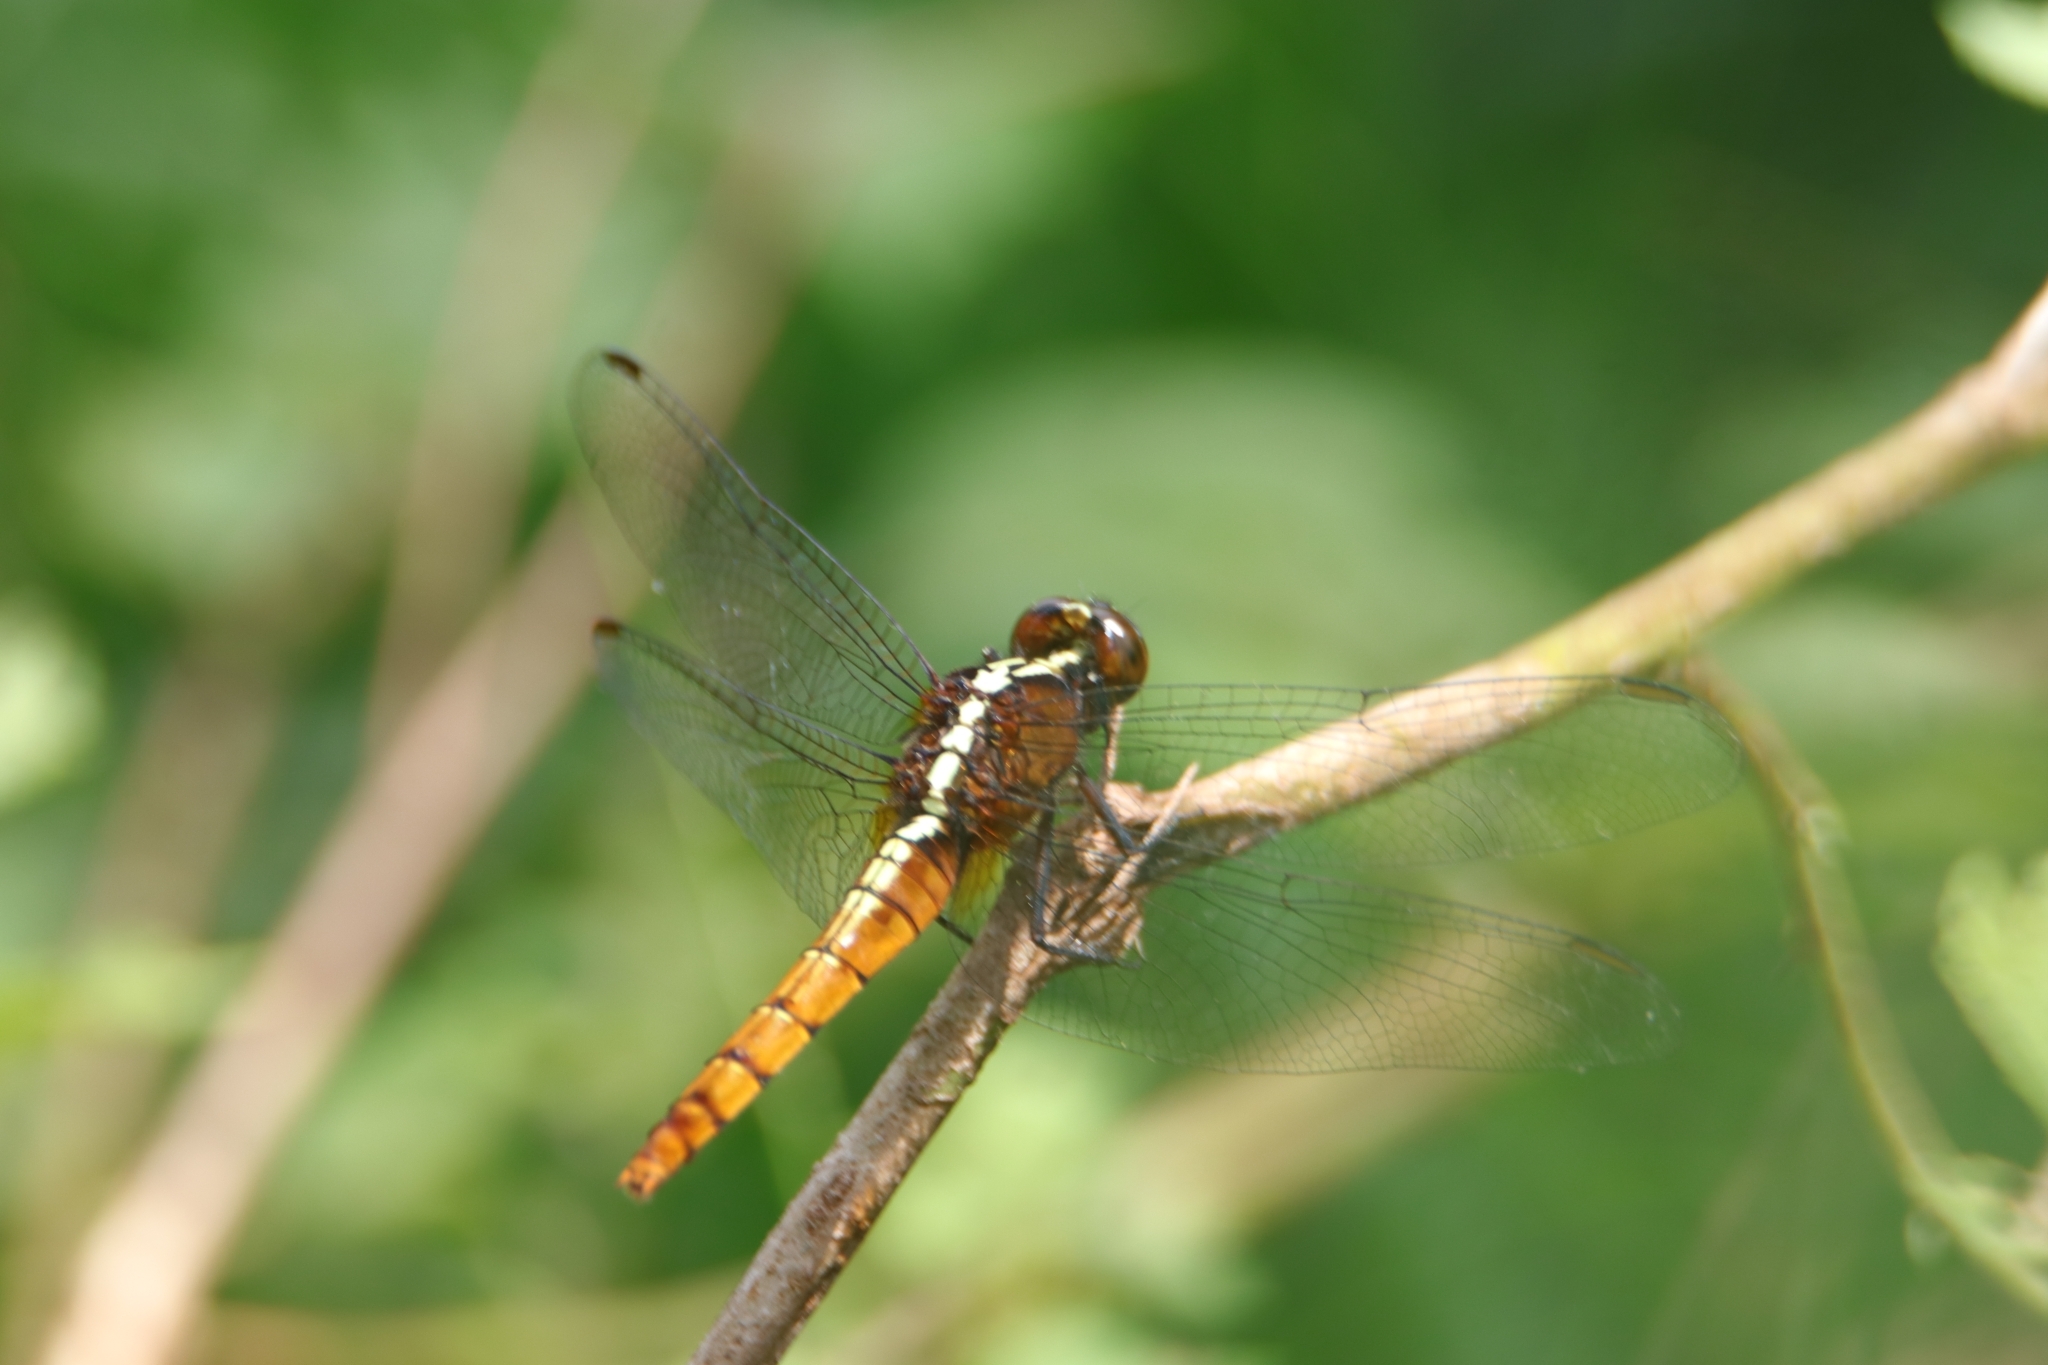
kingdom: Animalia
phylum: Arthropoda
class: Insecta
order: Odonata
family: Libellulidae
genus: Rhodothemis
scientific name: Rhodothemis rufa
